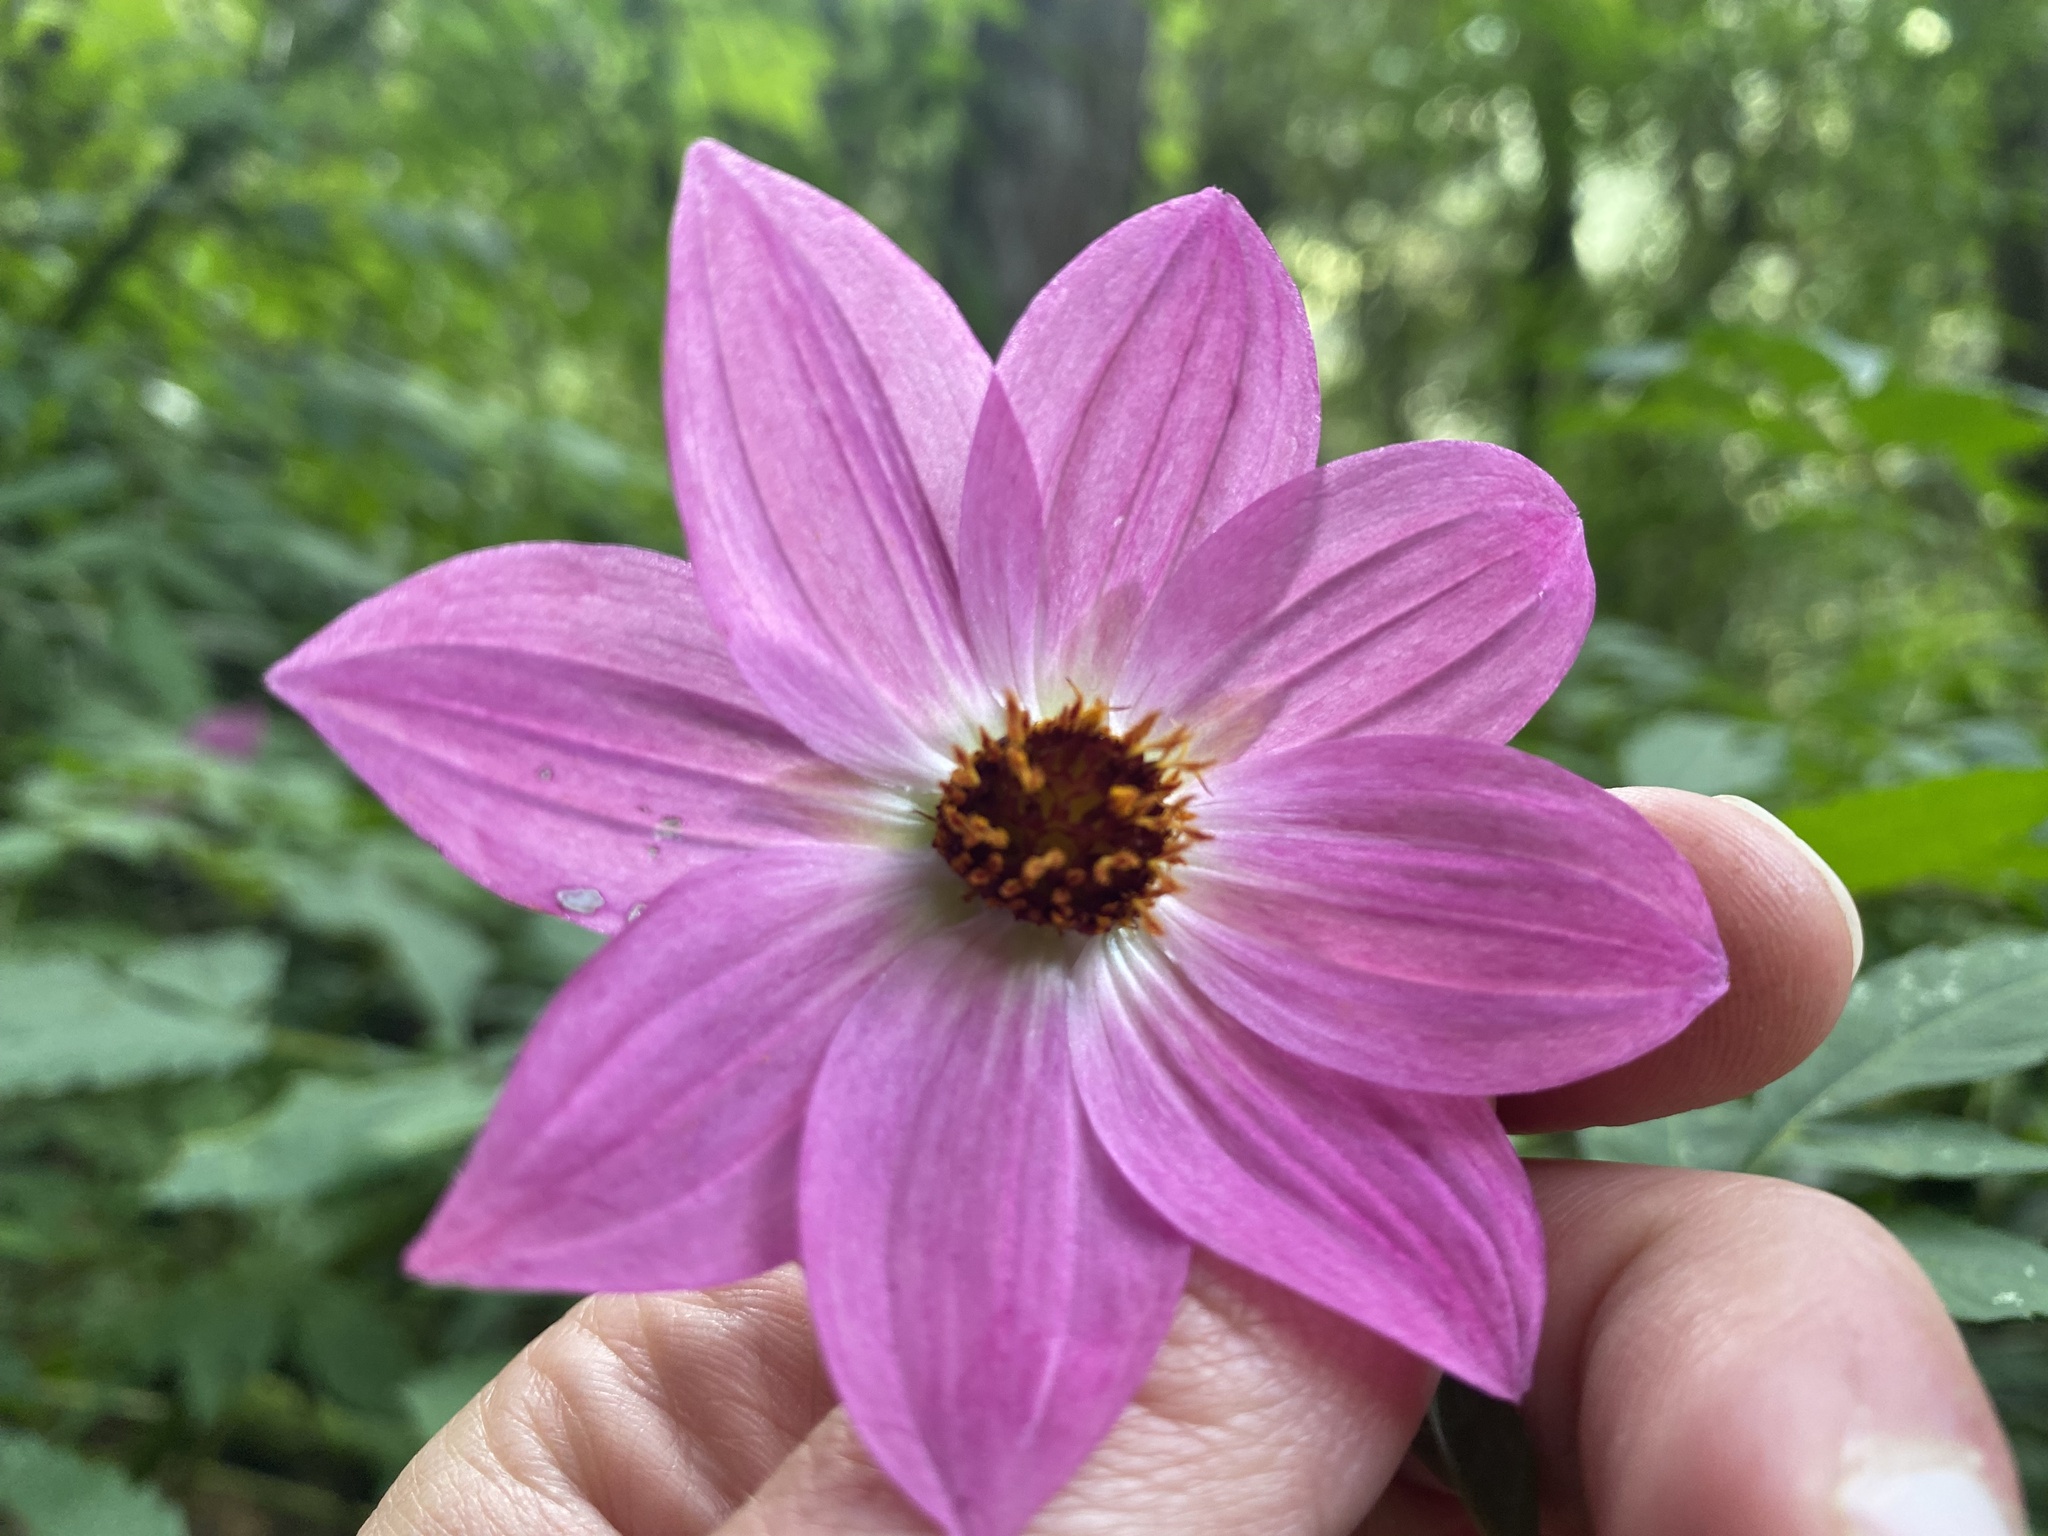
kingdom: Plantae
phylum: Tracheophyta
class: Magnoliopsida
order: Asterales
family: Asteraceae
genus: Dahlia
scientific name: Dahlia moorei
